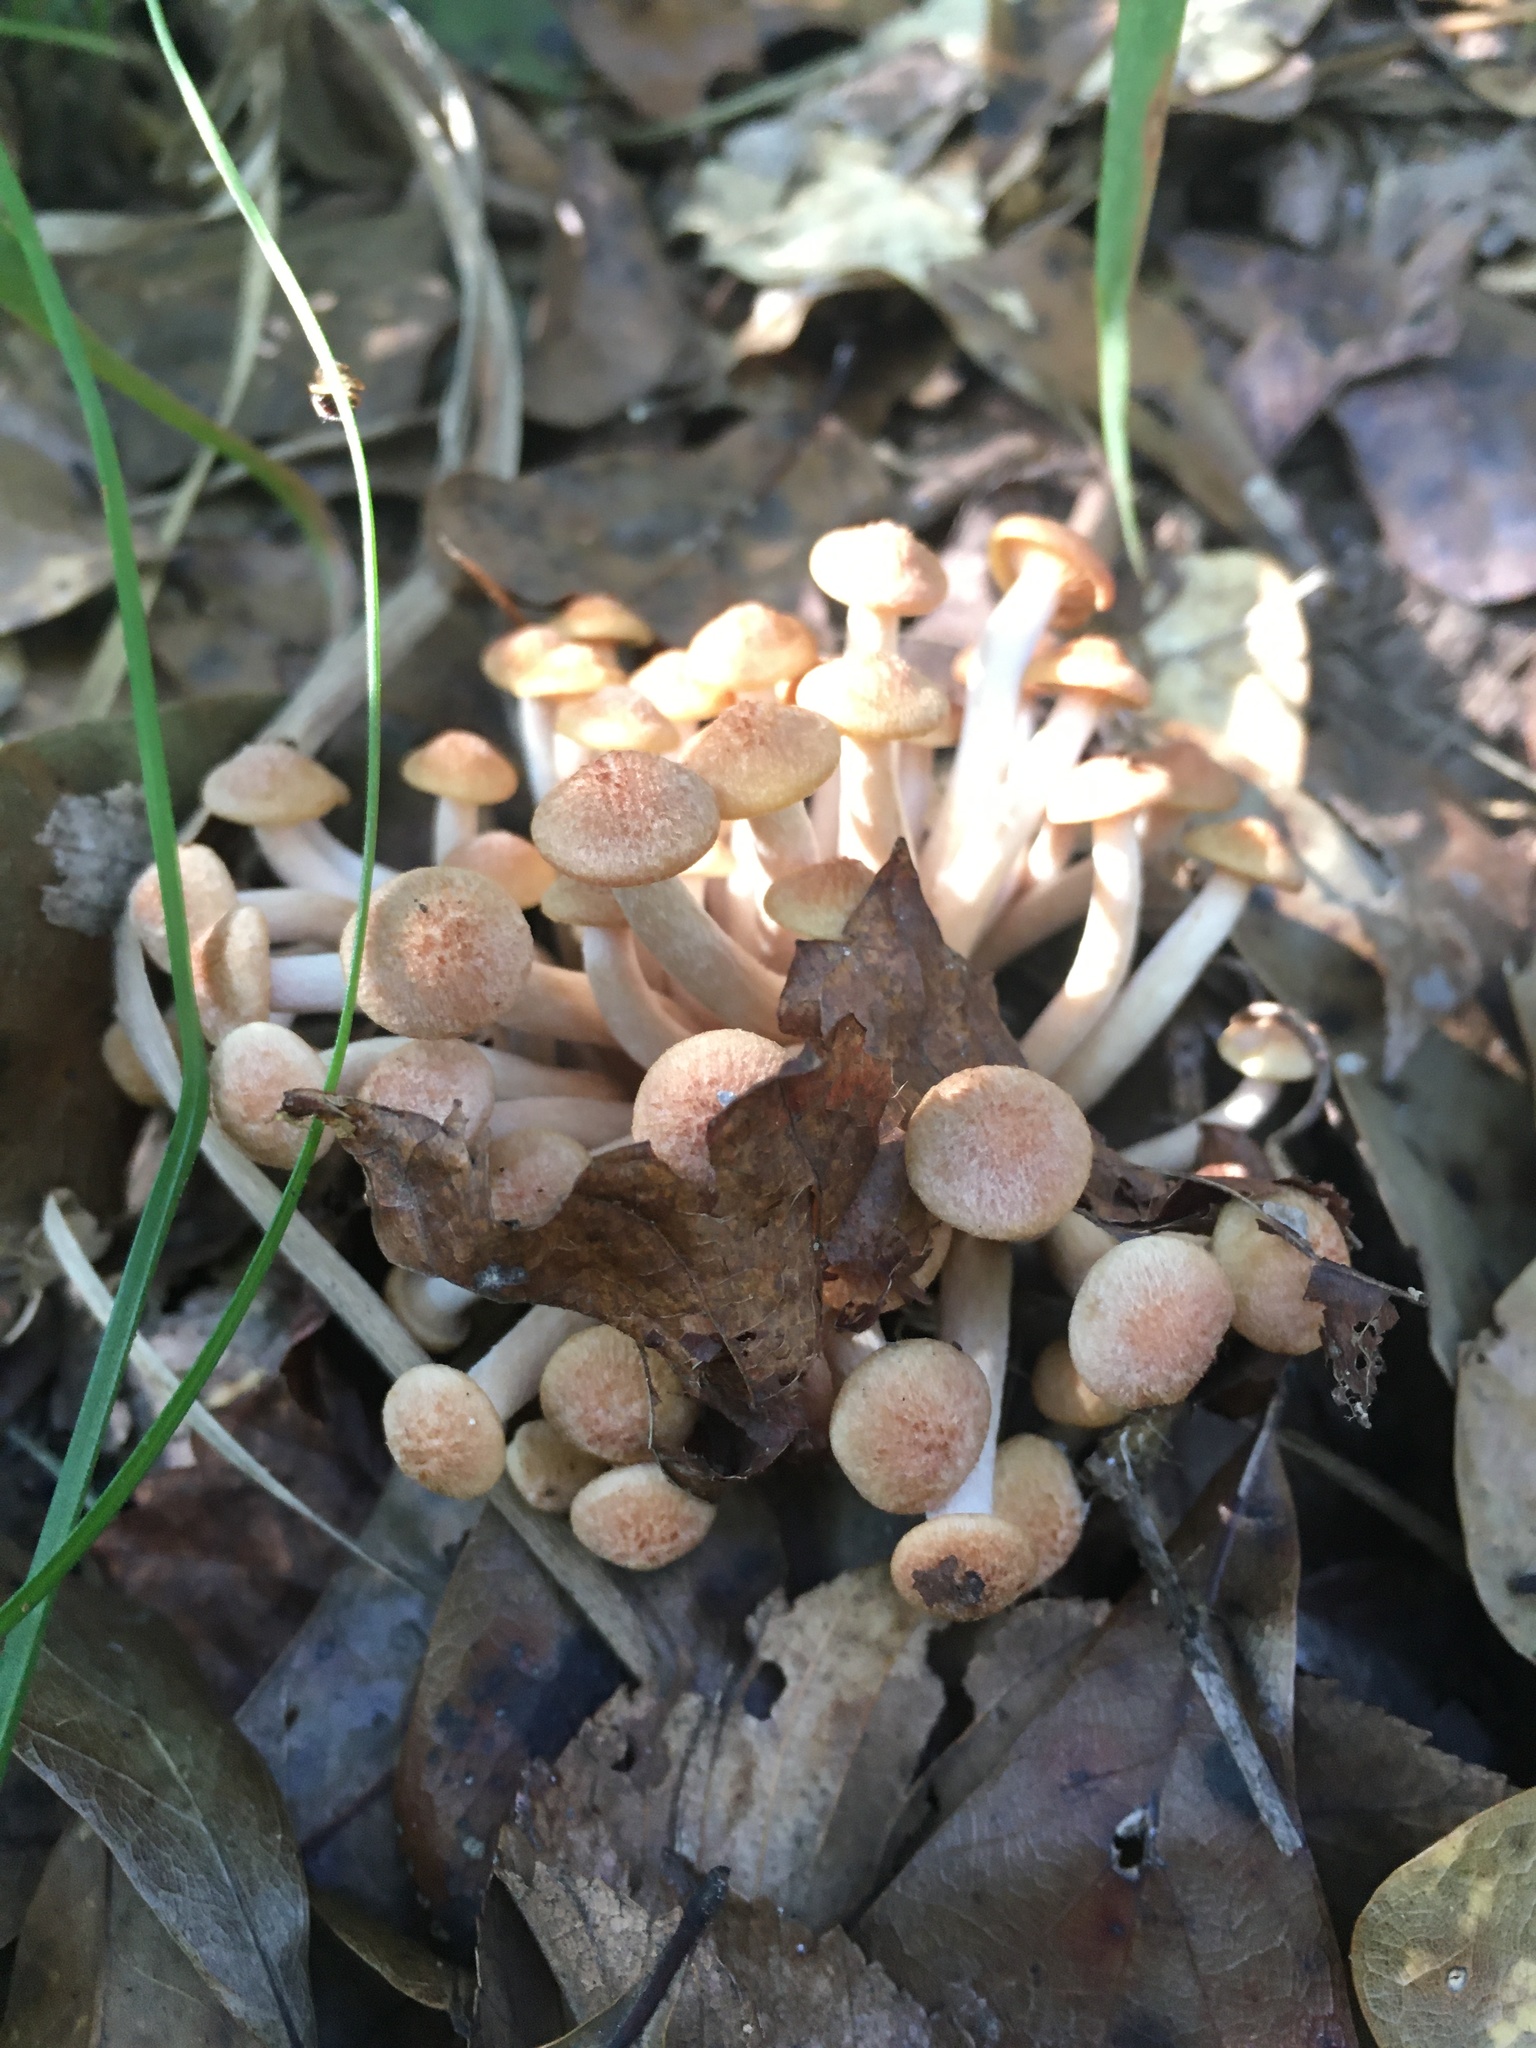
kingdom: Fungi
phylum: Basidiomycota
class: Agaricomycetes
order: Agaricales
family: Physalacriaceae
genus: Desarmillaria
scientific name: Desarmillaria caespitosa
